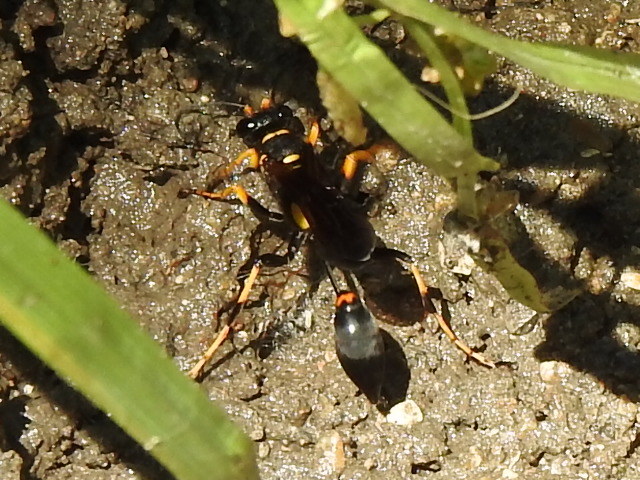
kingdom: Animalia
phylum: Arthropoda
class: Insecta
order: Hymenoptera
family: Sphecidae
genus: Sceliphron
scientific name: Sceliphron caementarium
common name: Mud dauber
